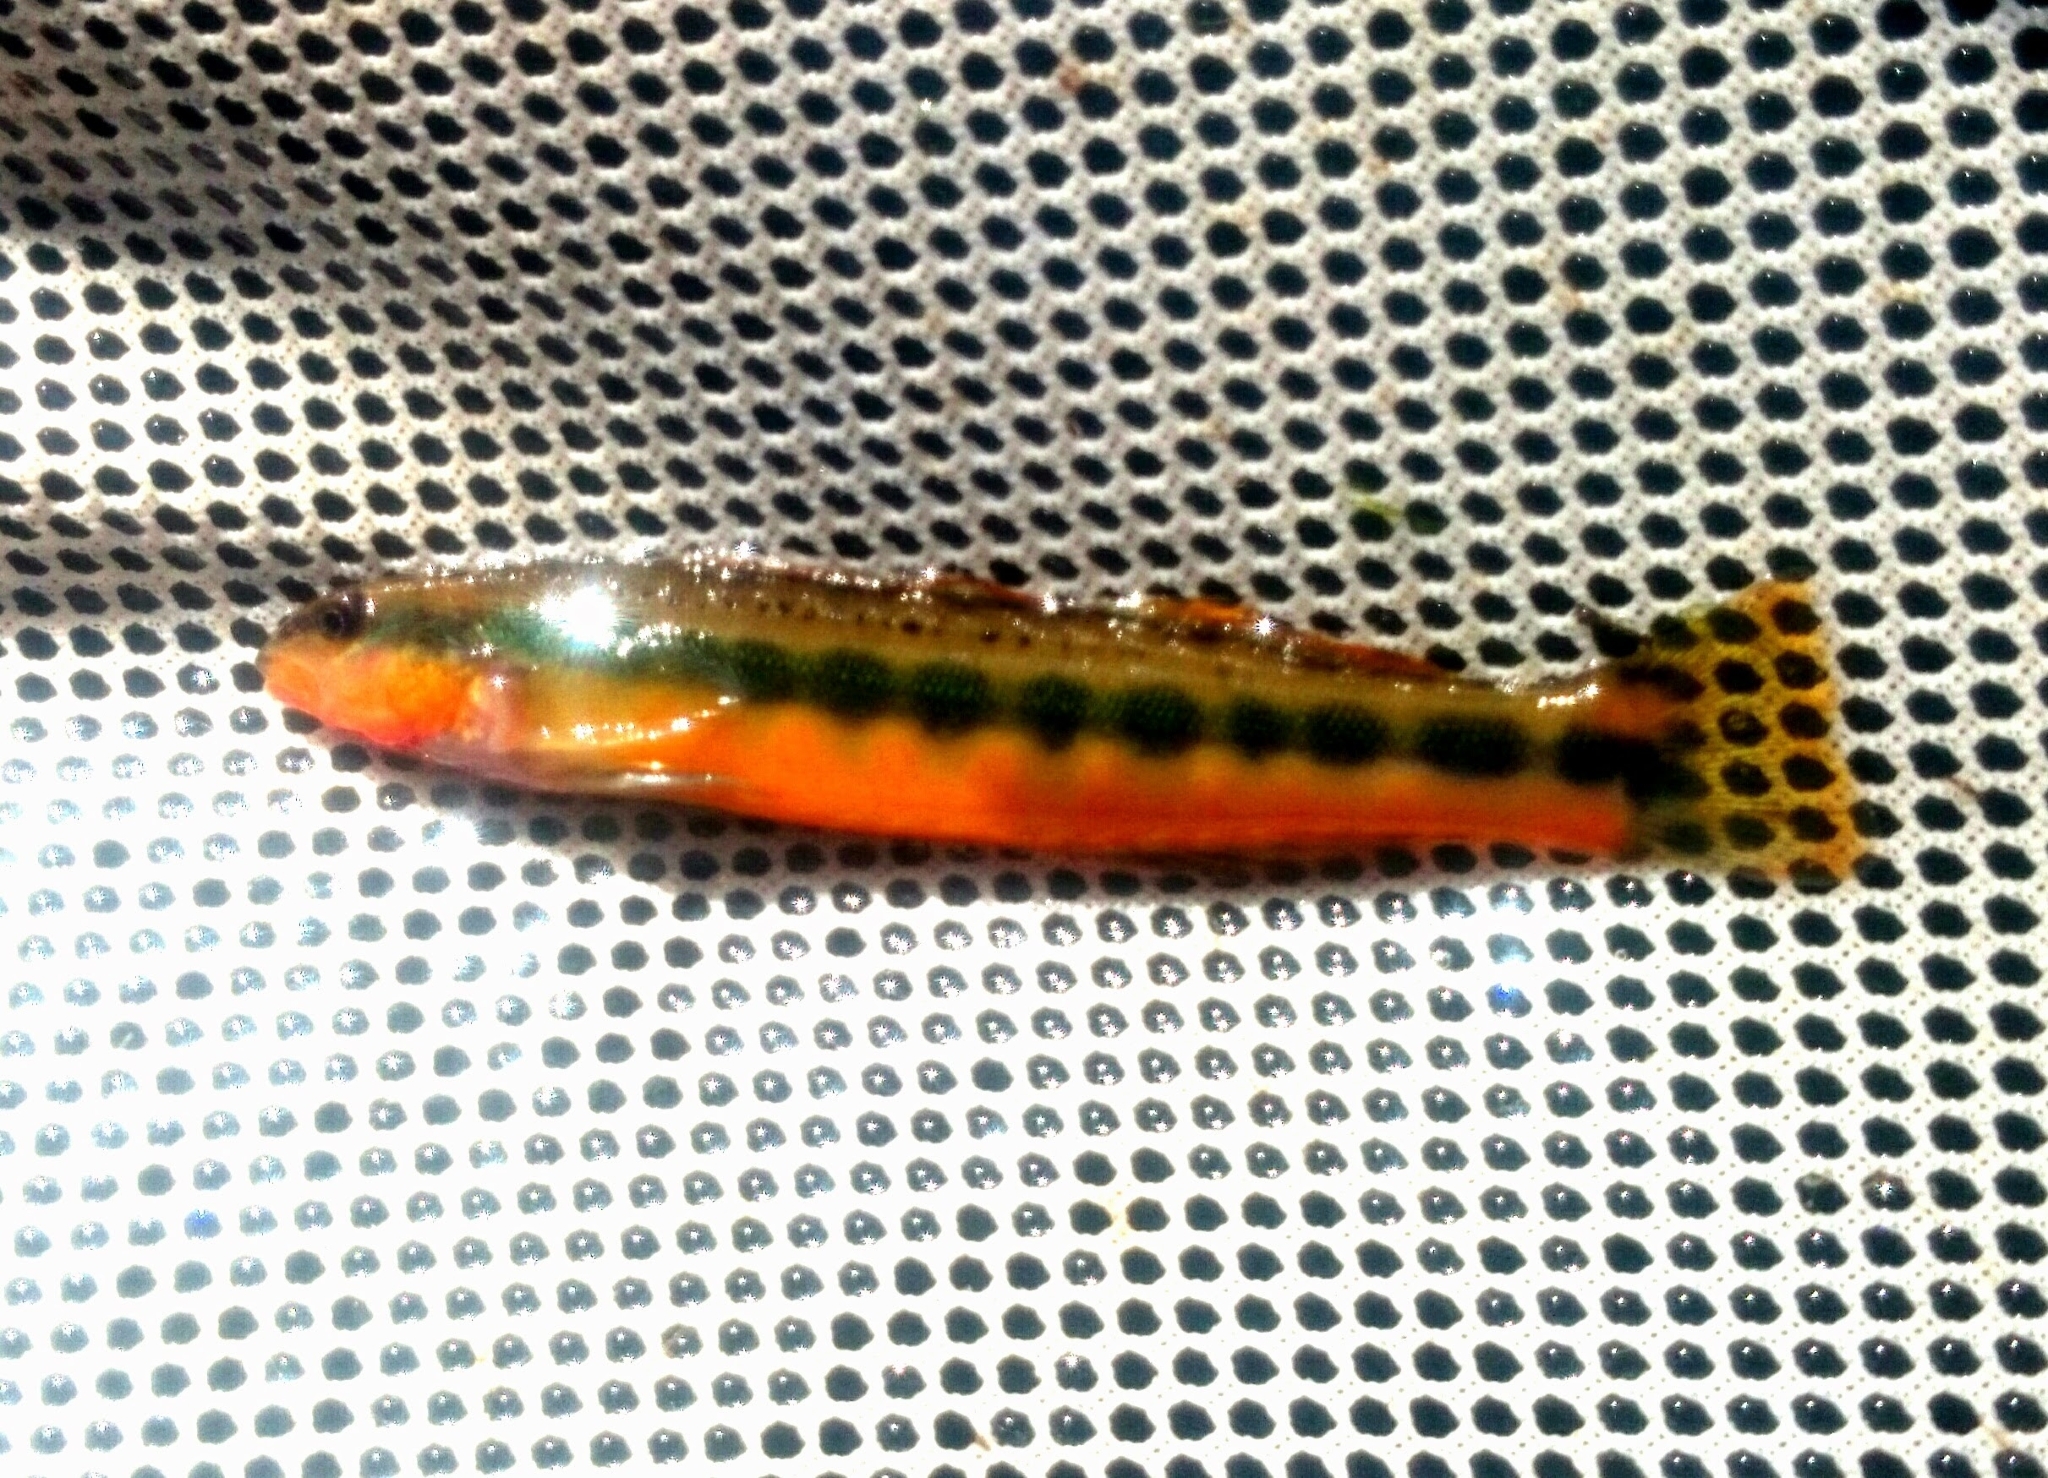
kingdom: Animalia
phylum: Chordata
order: Perciformes
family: Percidae
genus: Percina
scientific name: Percina aurantiaca
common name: Tangerine darter
